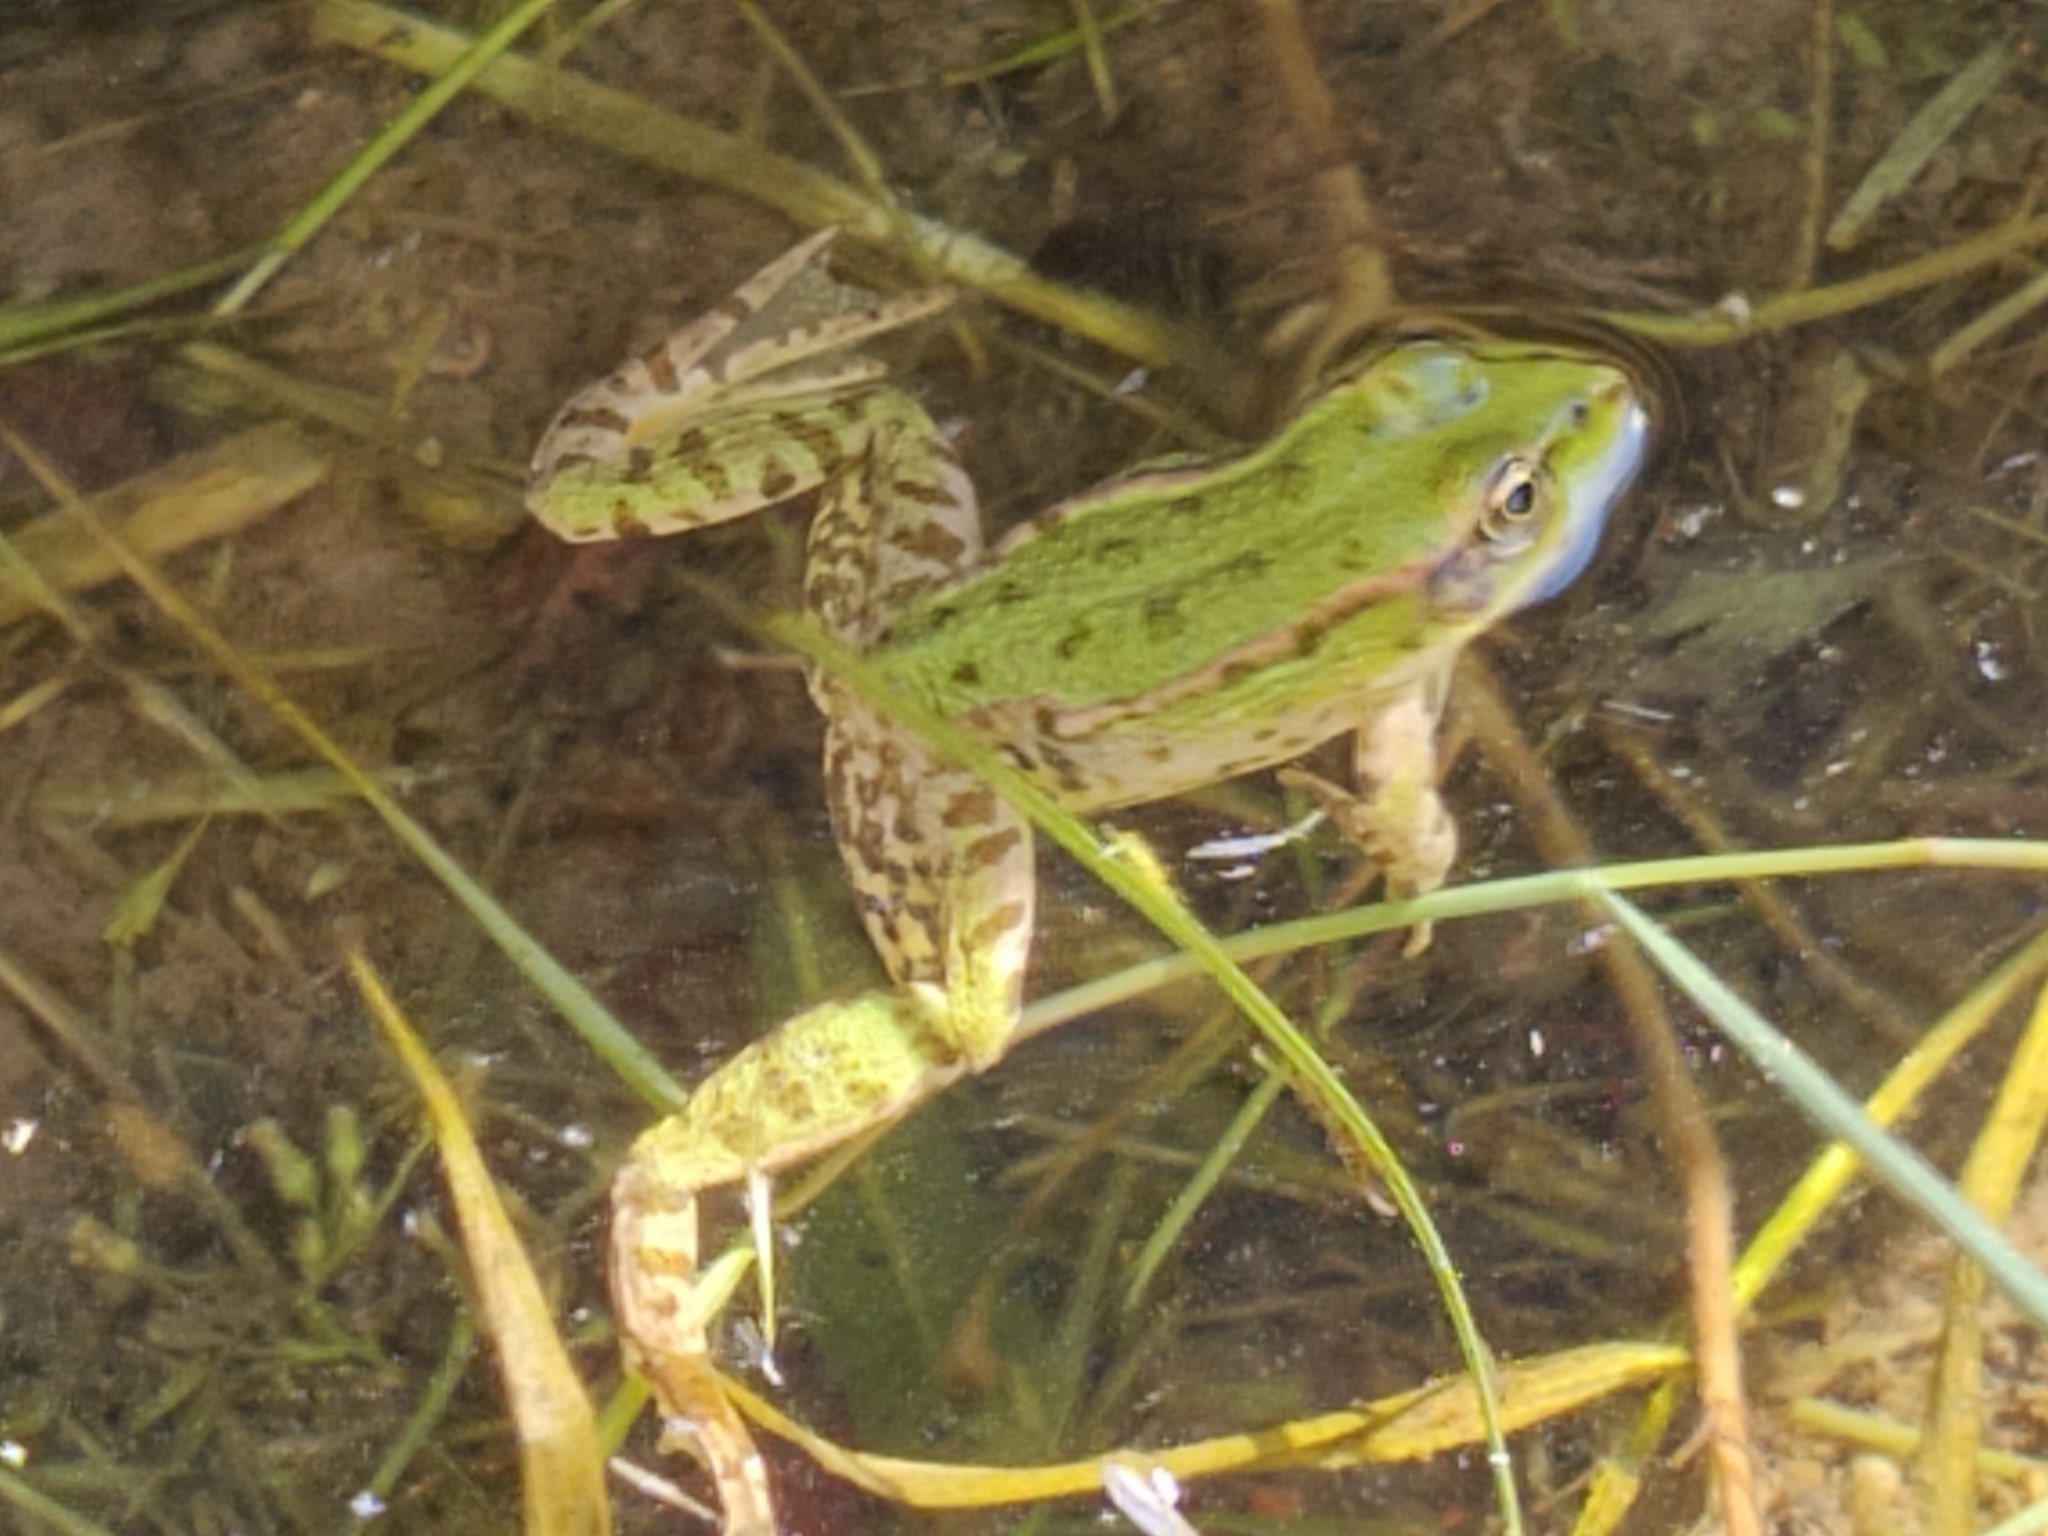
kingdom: Animalia
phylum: Chordata
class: Amphibia
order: Anura
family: Ranidae
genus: Pelophylax
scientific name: Pelophylax lessonae
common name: Pool frog
